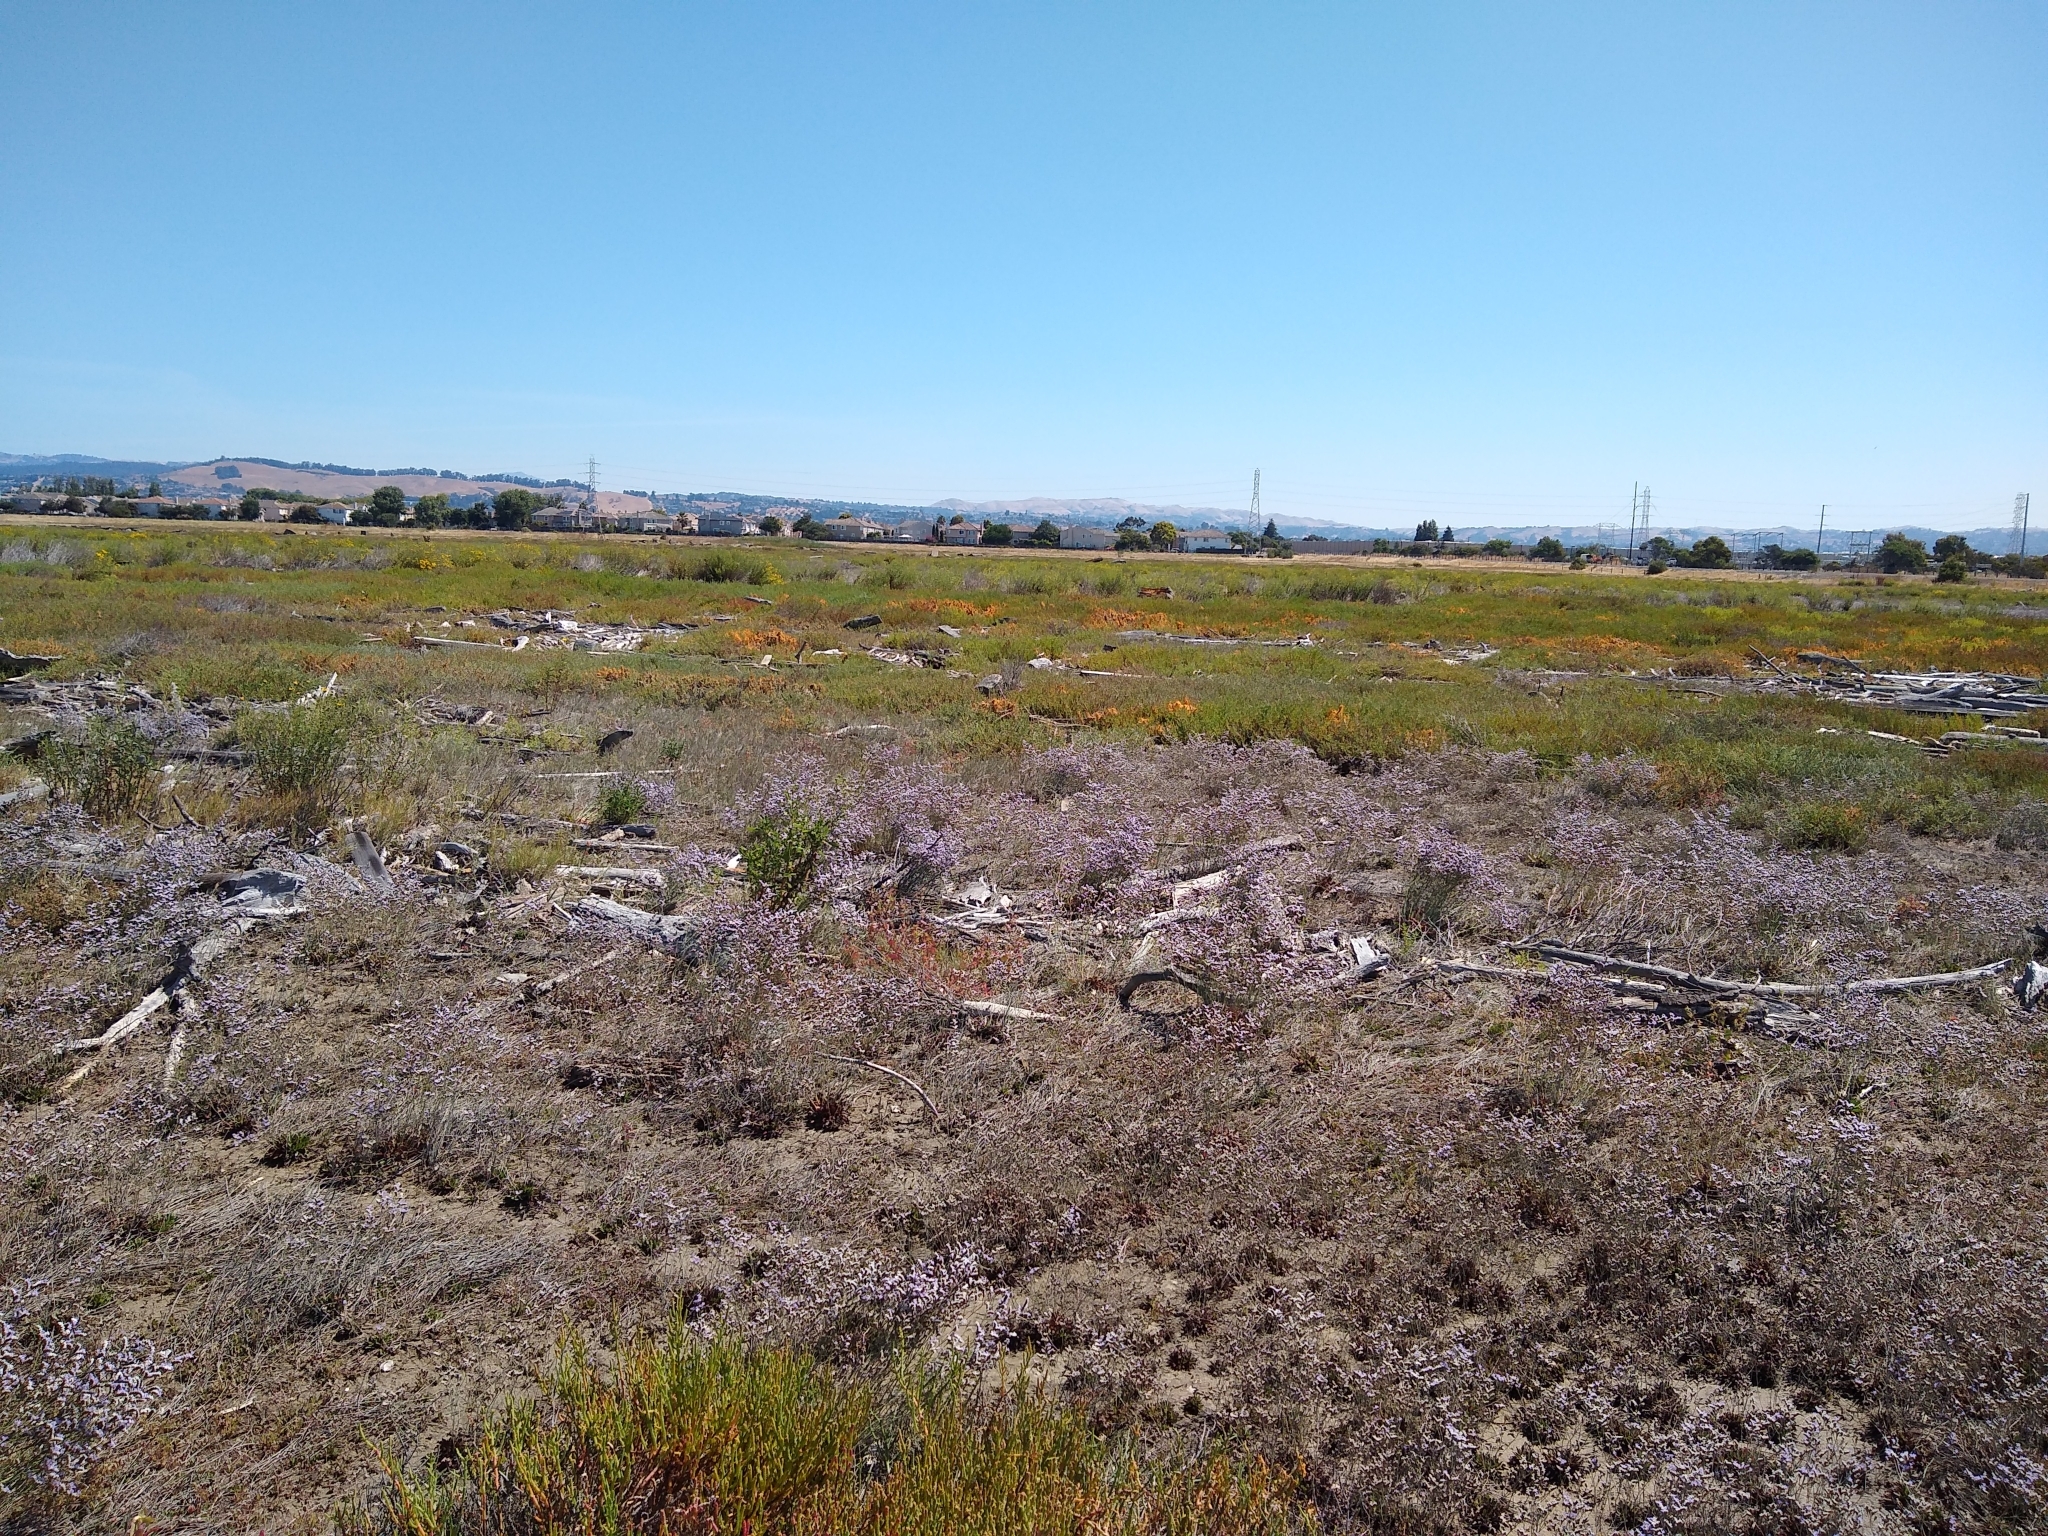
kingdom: Plantae
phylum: Tracheophyta
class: Magnoliopsida
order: Caryophyllales
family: Plumbaginaceae
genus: Limonium
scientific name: Limonium ramosissimum
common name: Algerian sea lavender
